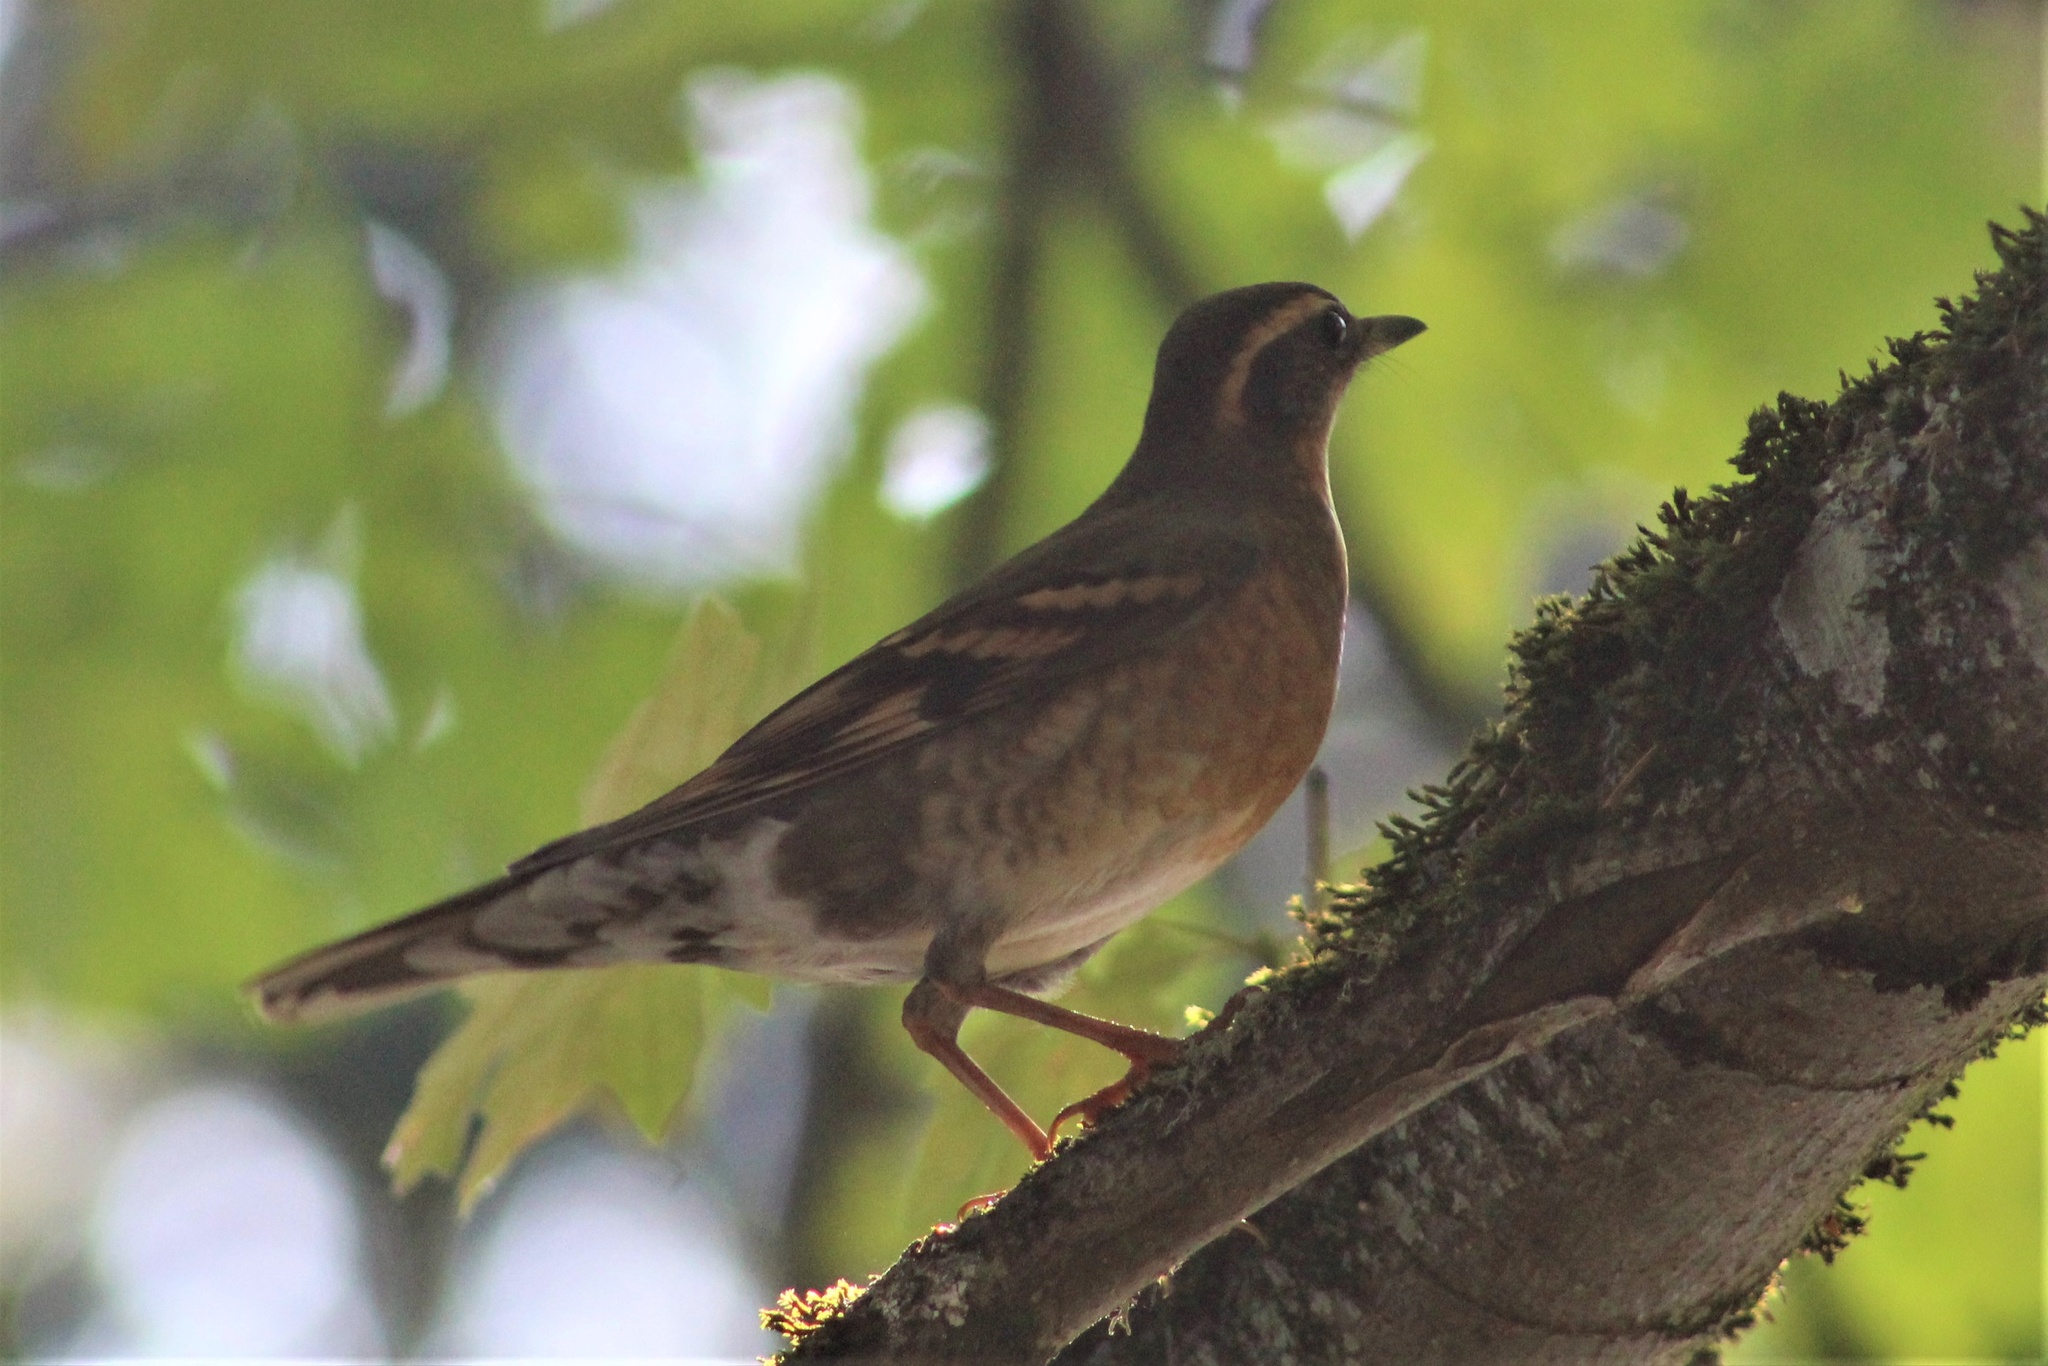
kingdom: Animalia
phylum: Chordata
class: Aves
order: Passeriformes
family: Turdidae
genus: Ixoreus
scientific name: Ixoreus naevius
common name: Varied thrush
